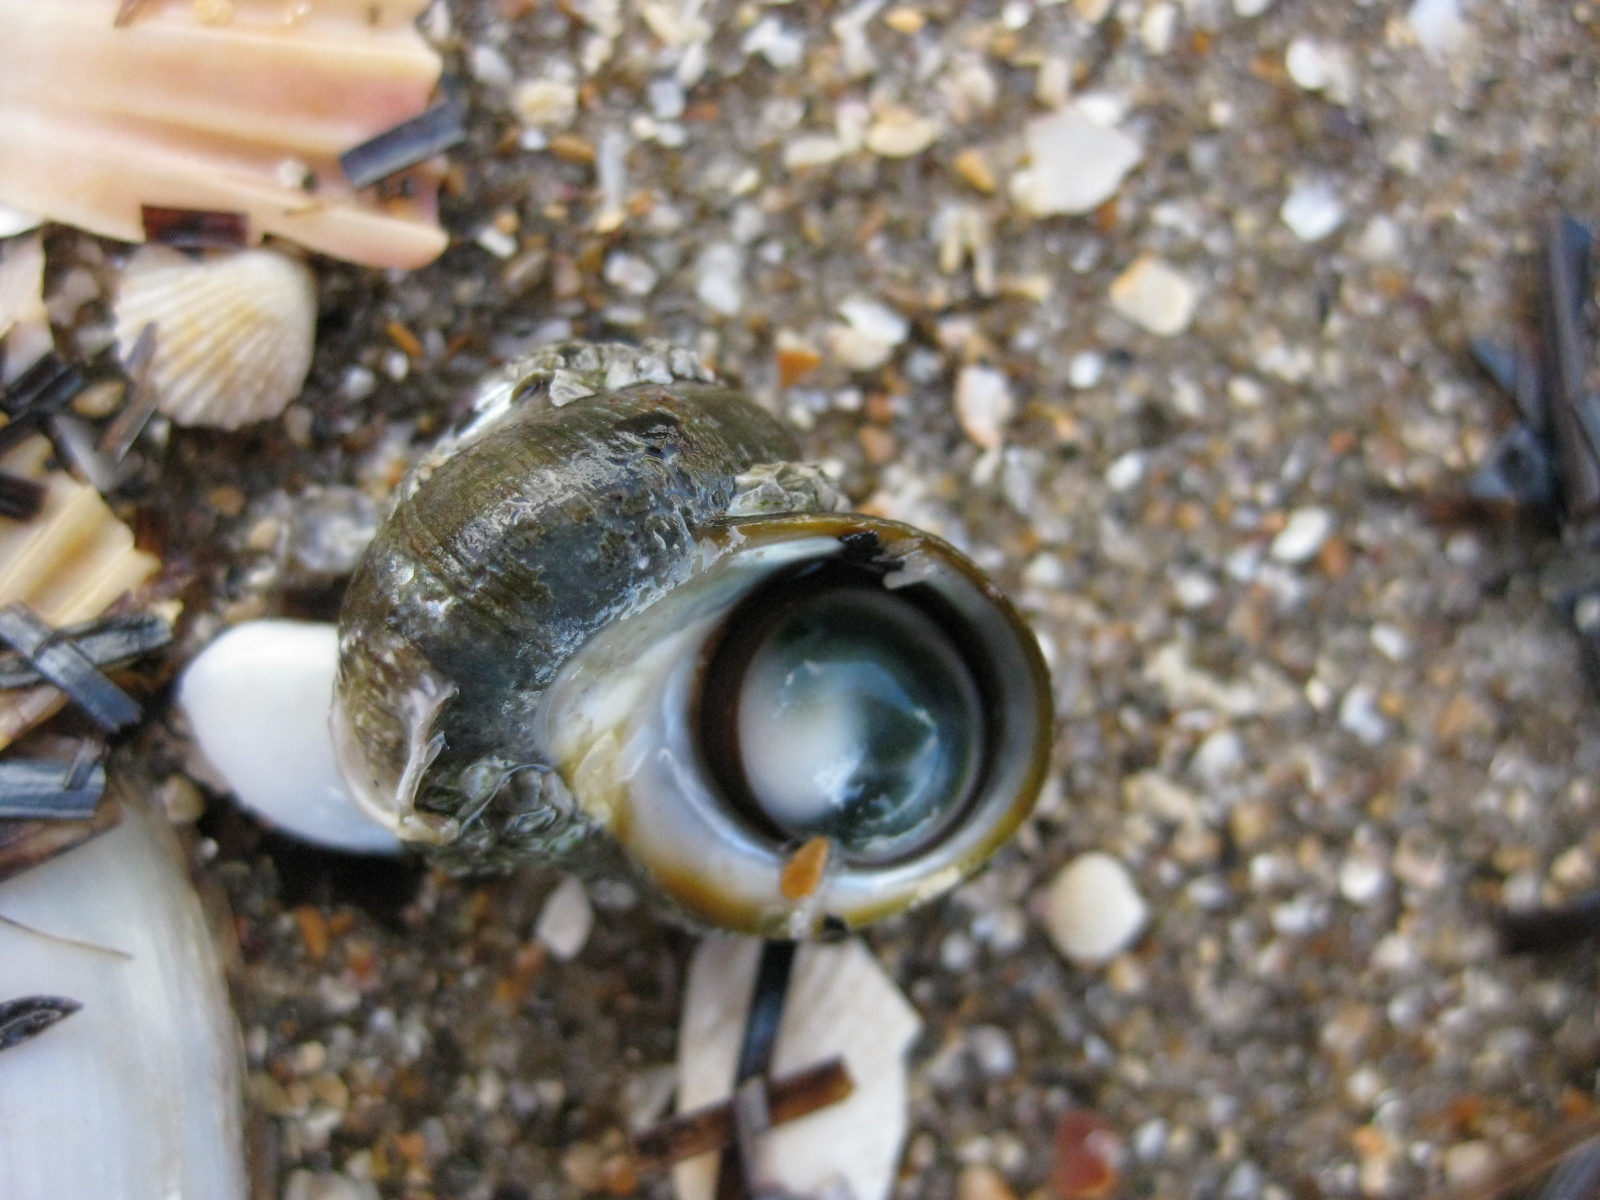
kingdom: Animalia
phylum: Mollusca
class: Gastropoda
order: Trochida
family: Turbinidae
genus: Lunella
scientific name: Lunella smaragda
